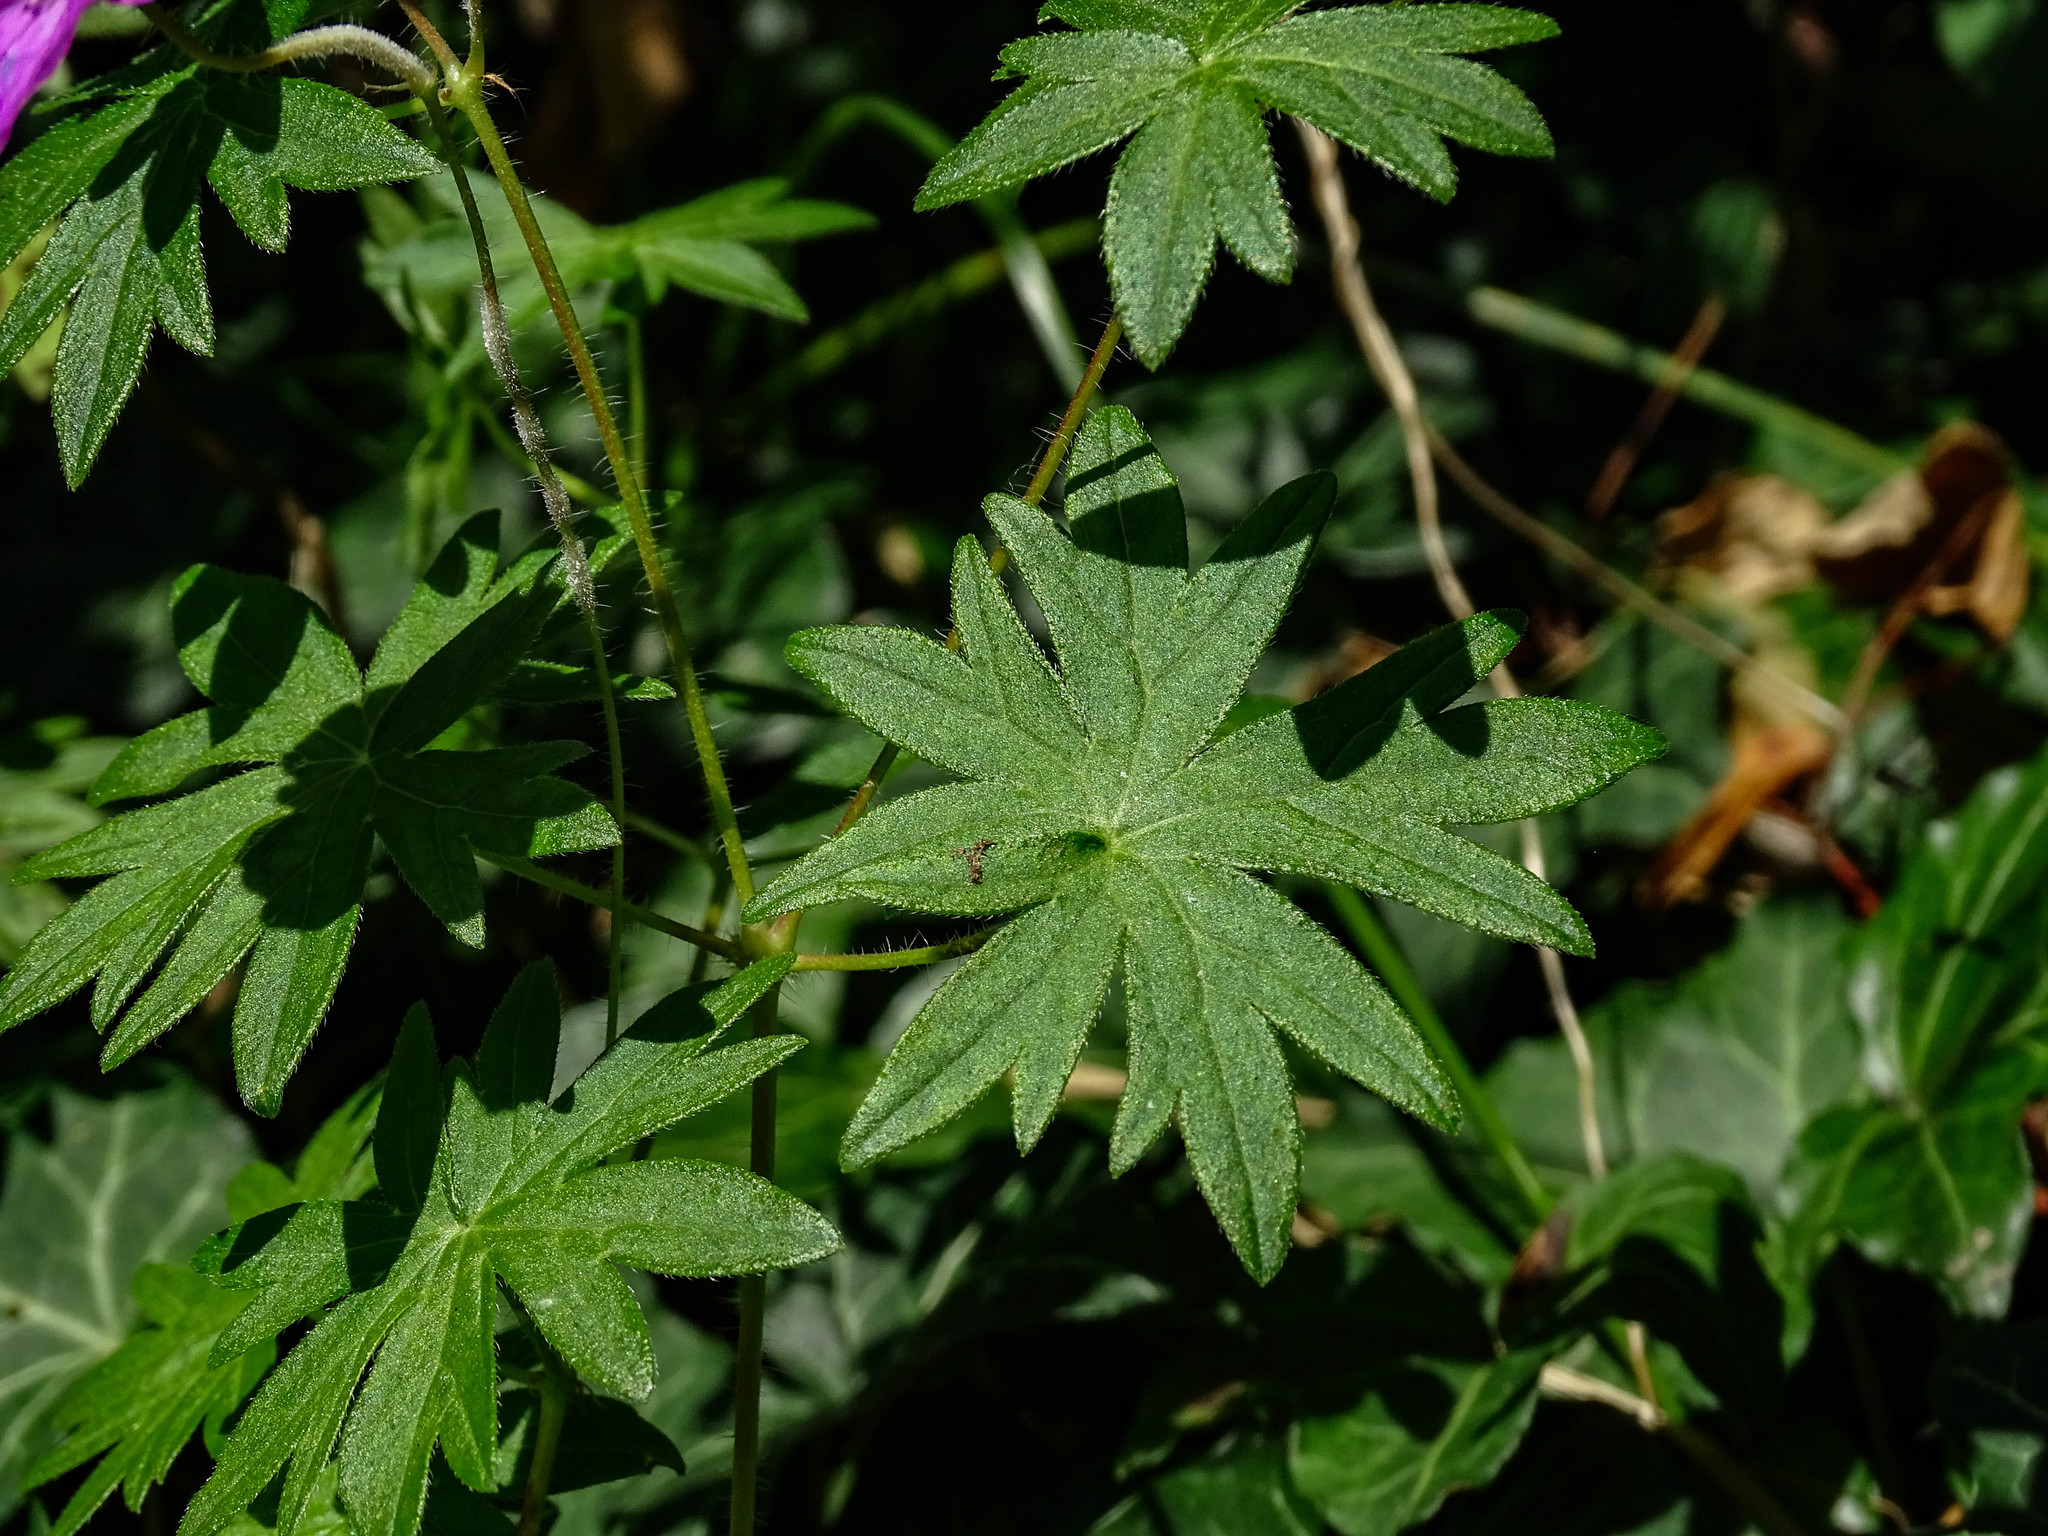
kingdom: Plantae
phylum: Tracheophyta
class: Magnoliopsida
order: Geraniales
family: Geraniaceae
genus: Geranium
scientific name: Geranium sanguineum
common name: Bloody crane's-bill
